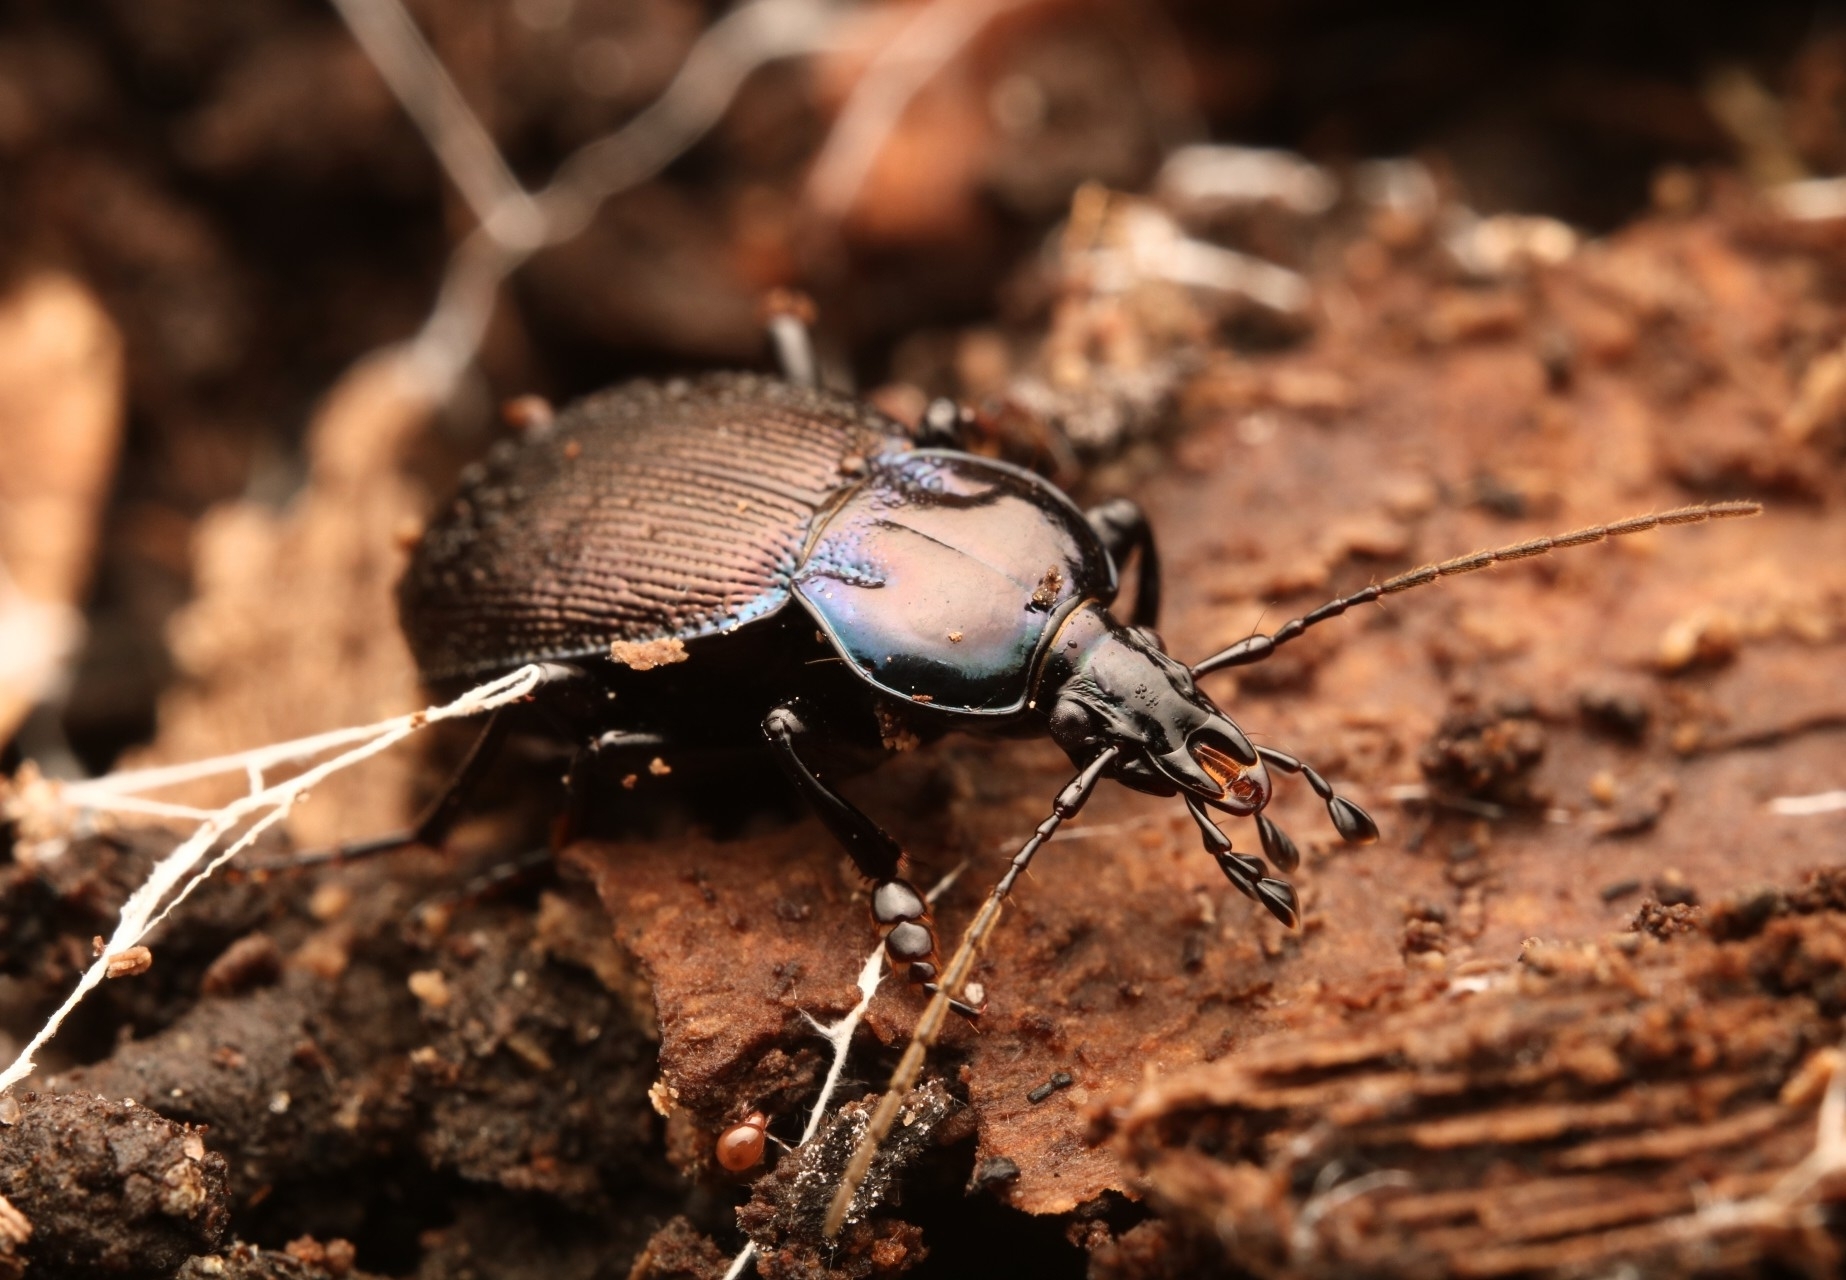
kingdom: Animalia
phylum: Arthropoda
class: Insecta
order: Coleoptera
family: Carabidae
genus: Sphaeroderus
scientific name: Sphaeroderus stenostomus
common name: Small snail-eating ground beetle
